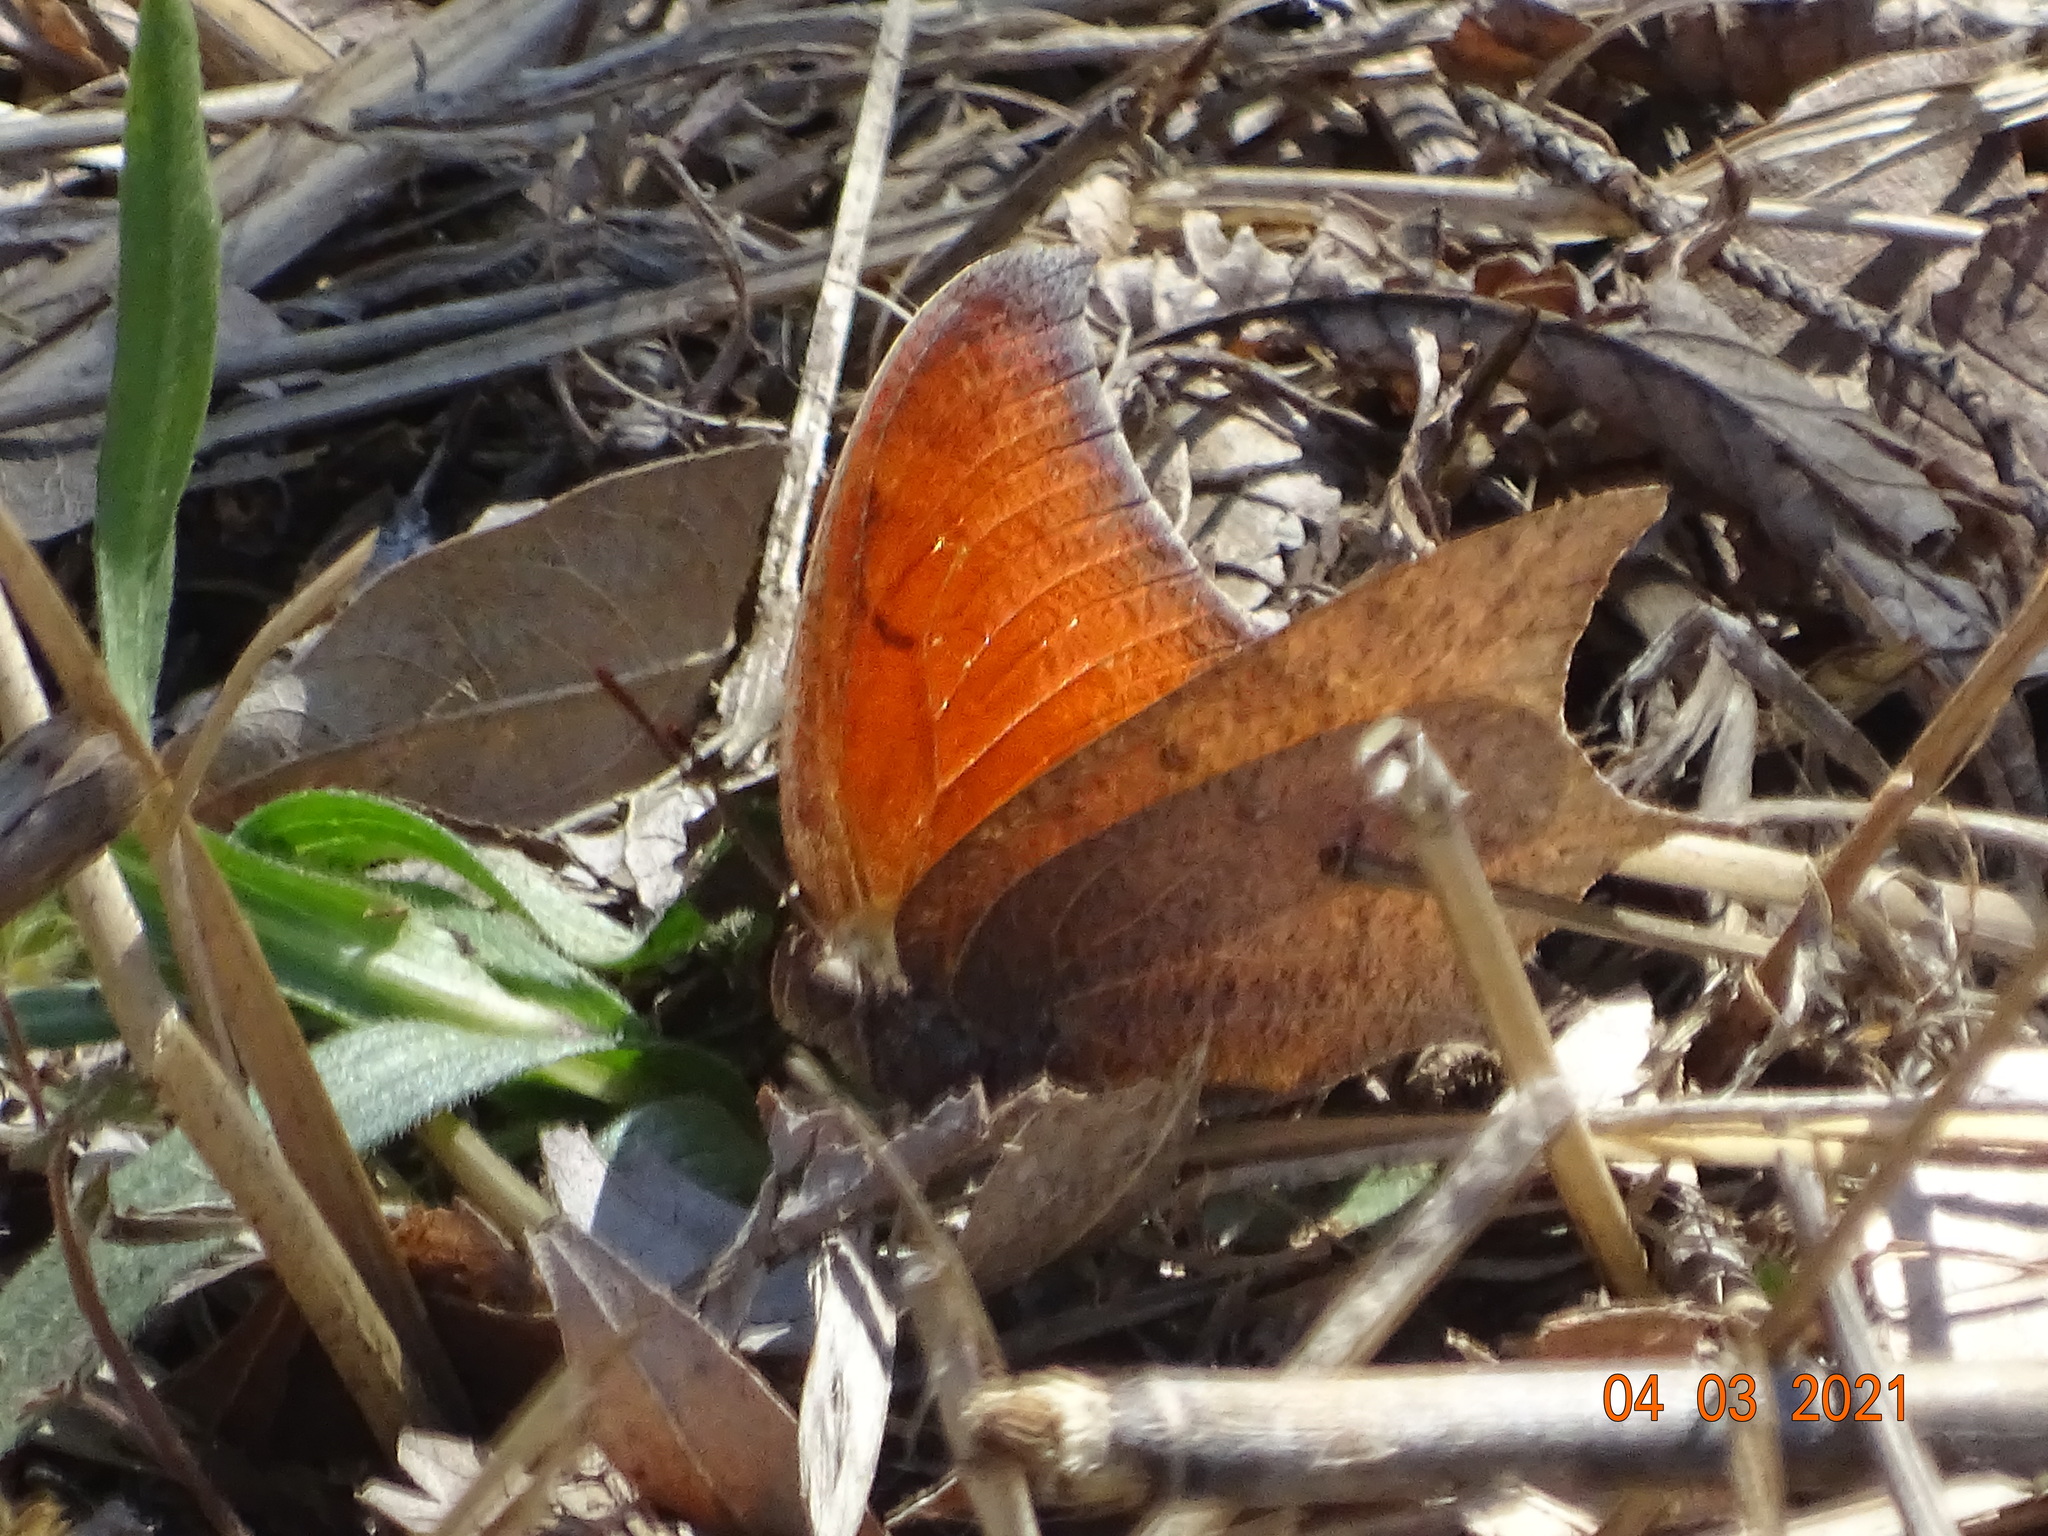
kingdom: Animalia
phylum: Arthropoda
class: Insecta
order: Lepidoptera
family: Nymphalidae
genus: Anaea
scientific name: Anaea andria
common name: Goatweed leafwing
